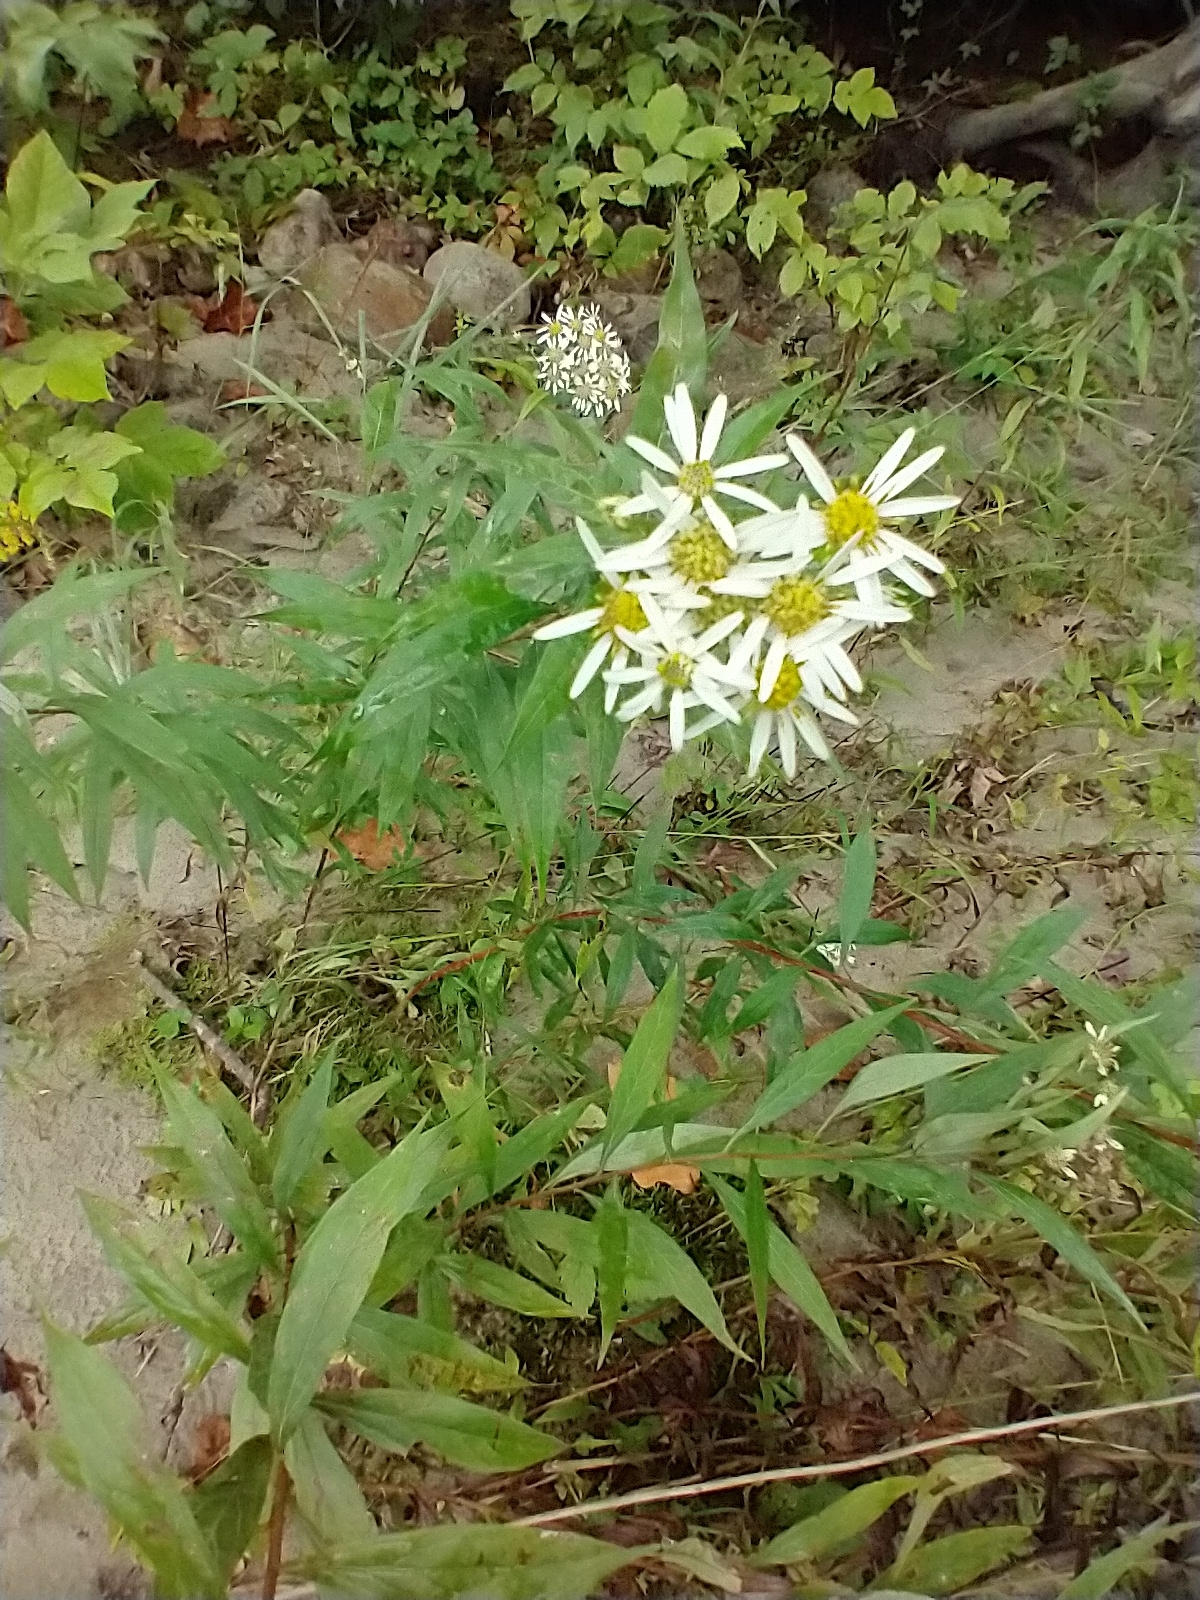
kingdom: Plantae
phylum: Tracheophyta
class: Magnoliopsida
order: Asterales
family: Asteraceae
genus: Doellingeria
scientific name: Doellingeria umbellata
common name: Flat-top white aster
